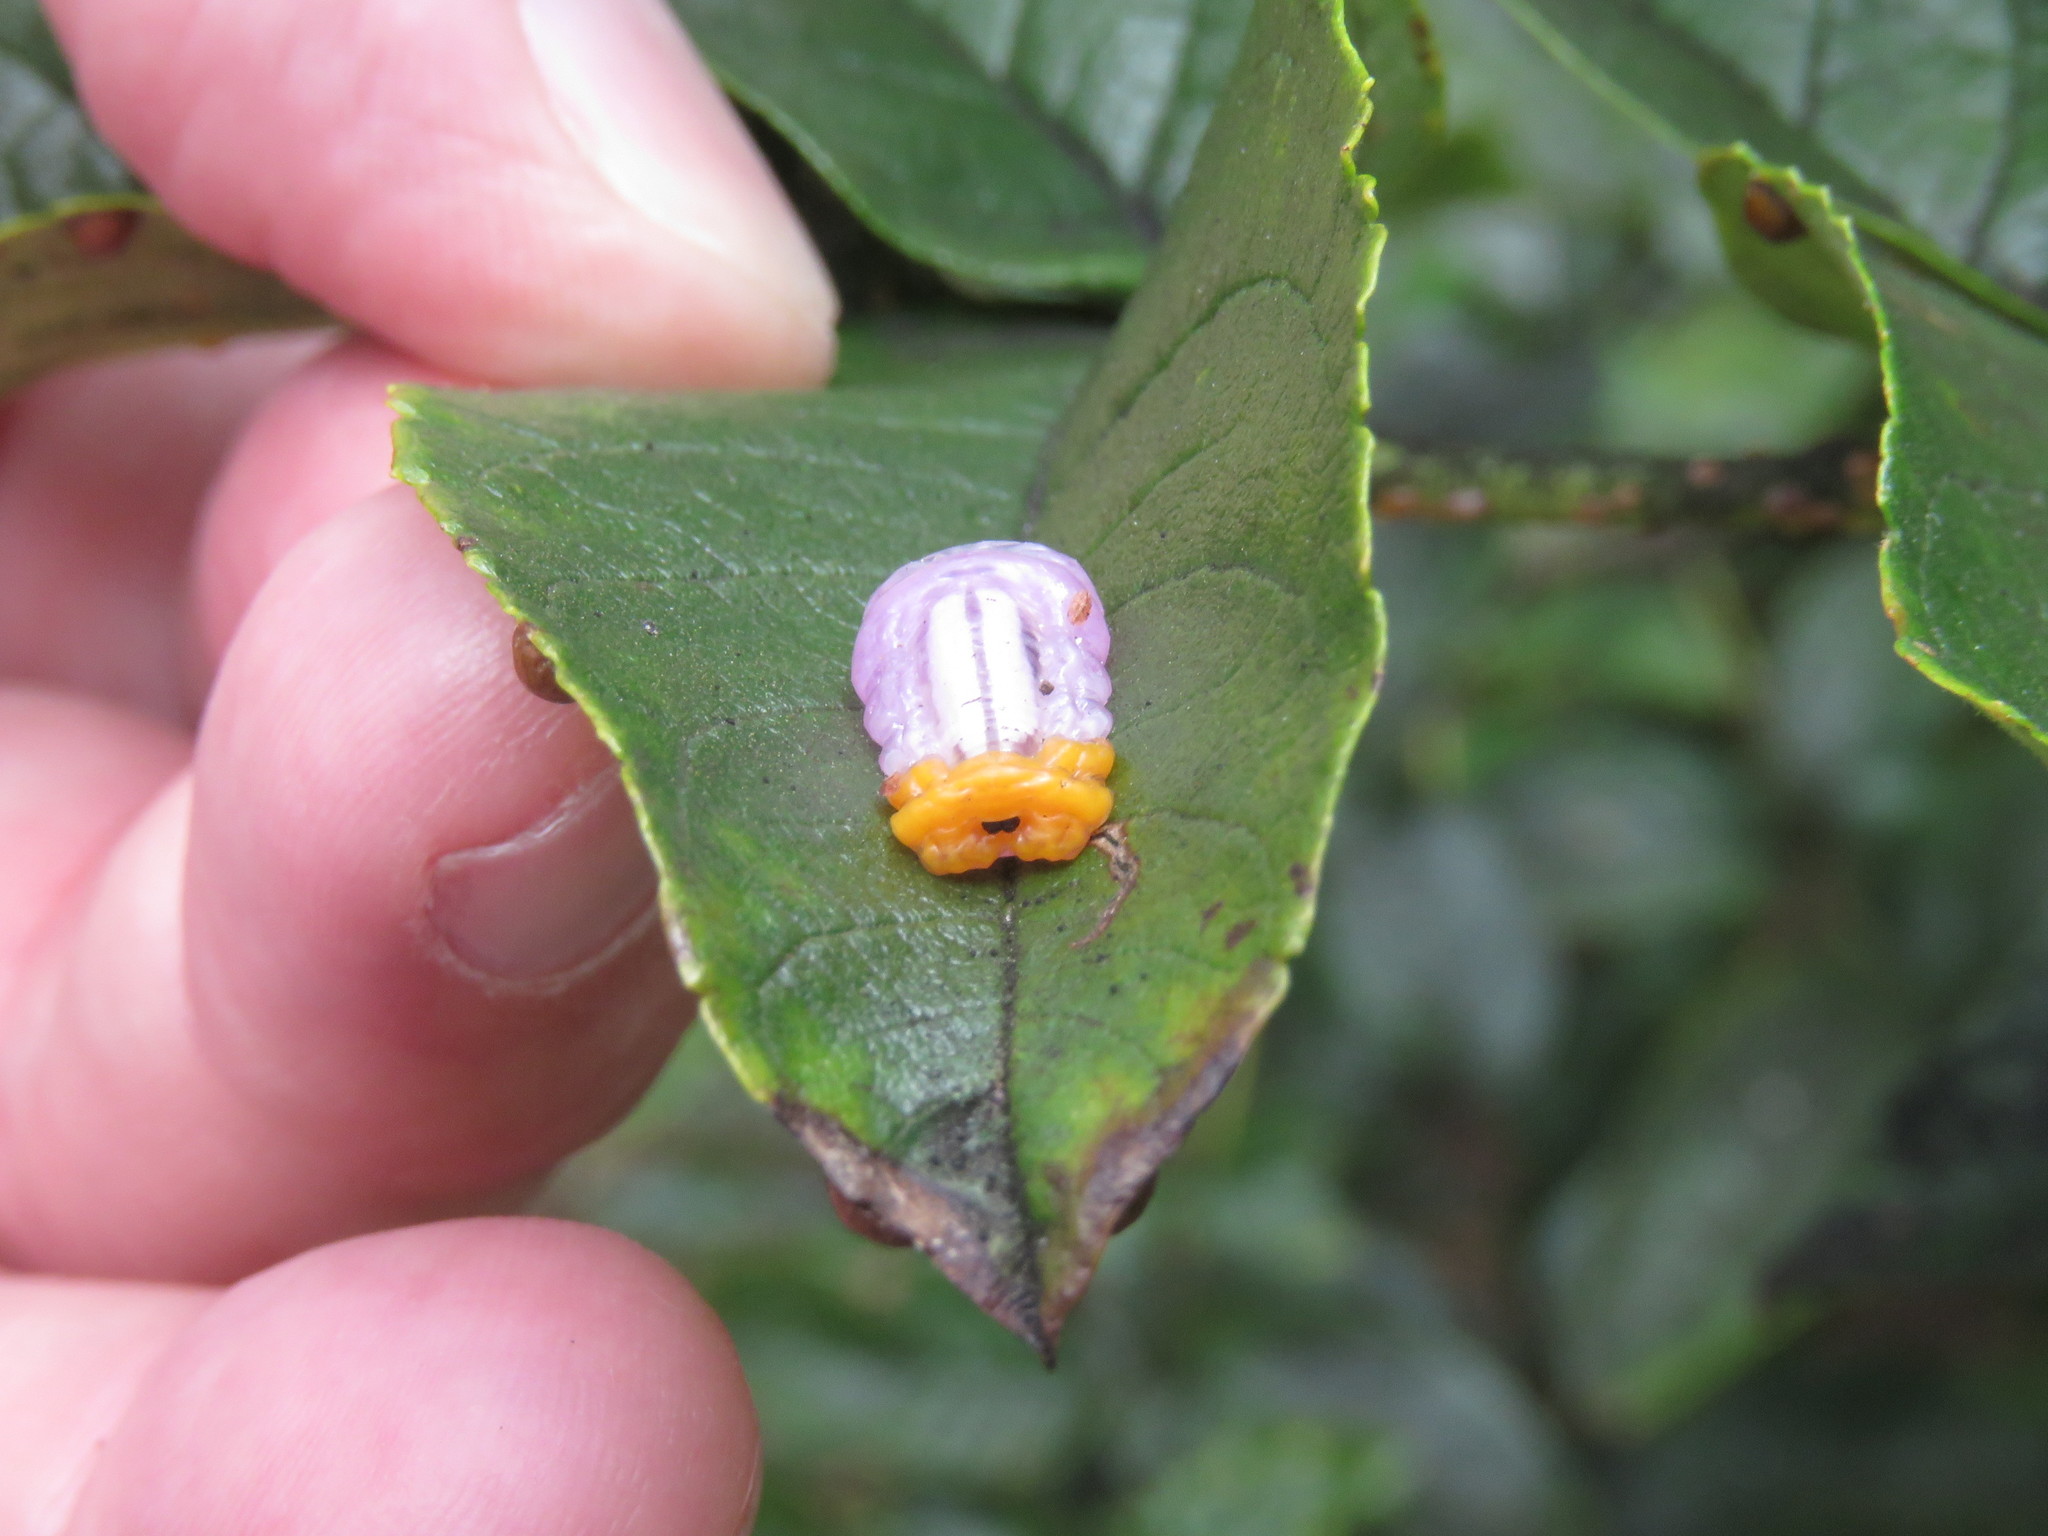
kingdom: Animalia
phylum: Arthropoda
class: Insecta
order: Diptera
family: Syrphidae
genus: Mimocalla
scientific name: Mimocalla giganteus
